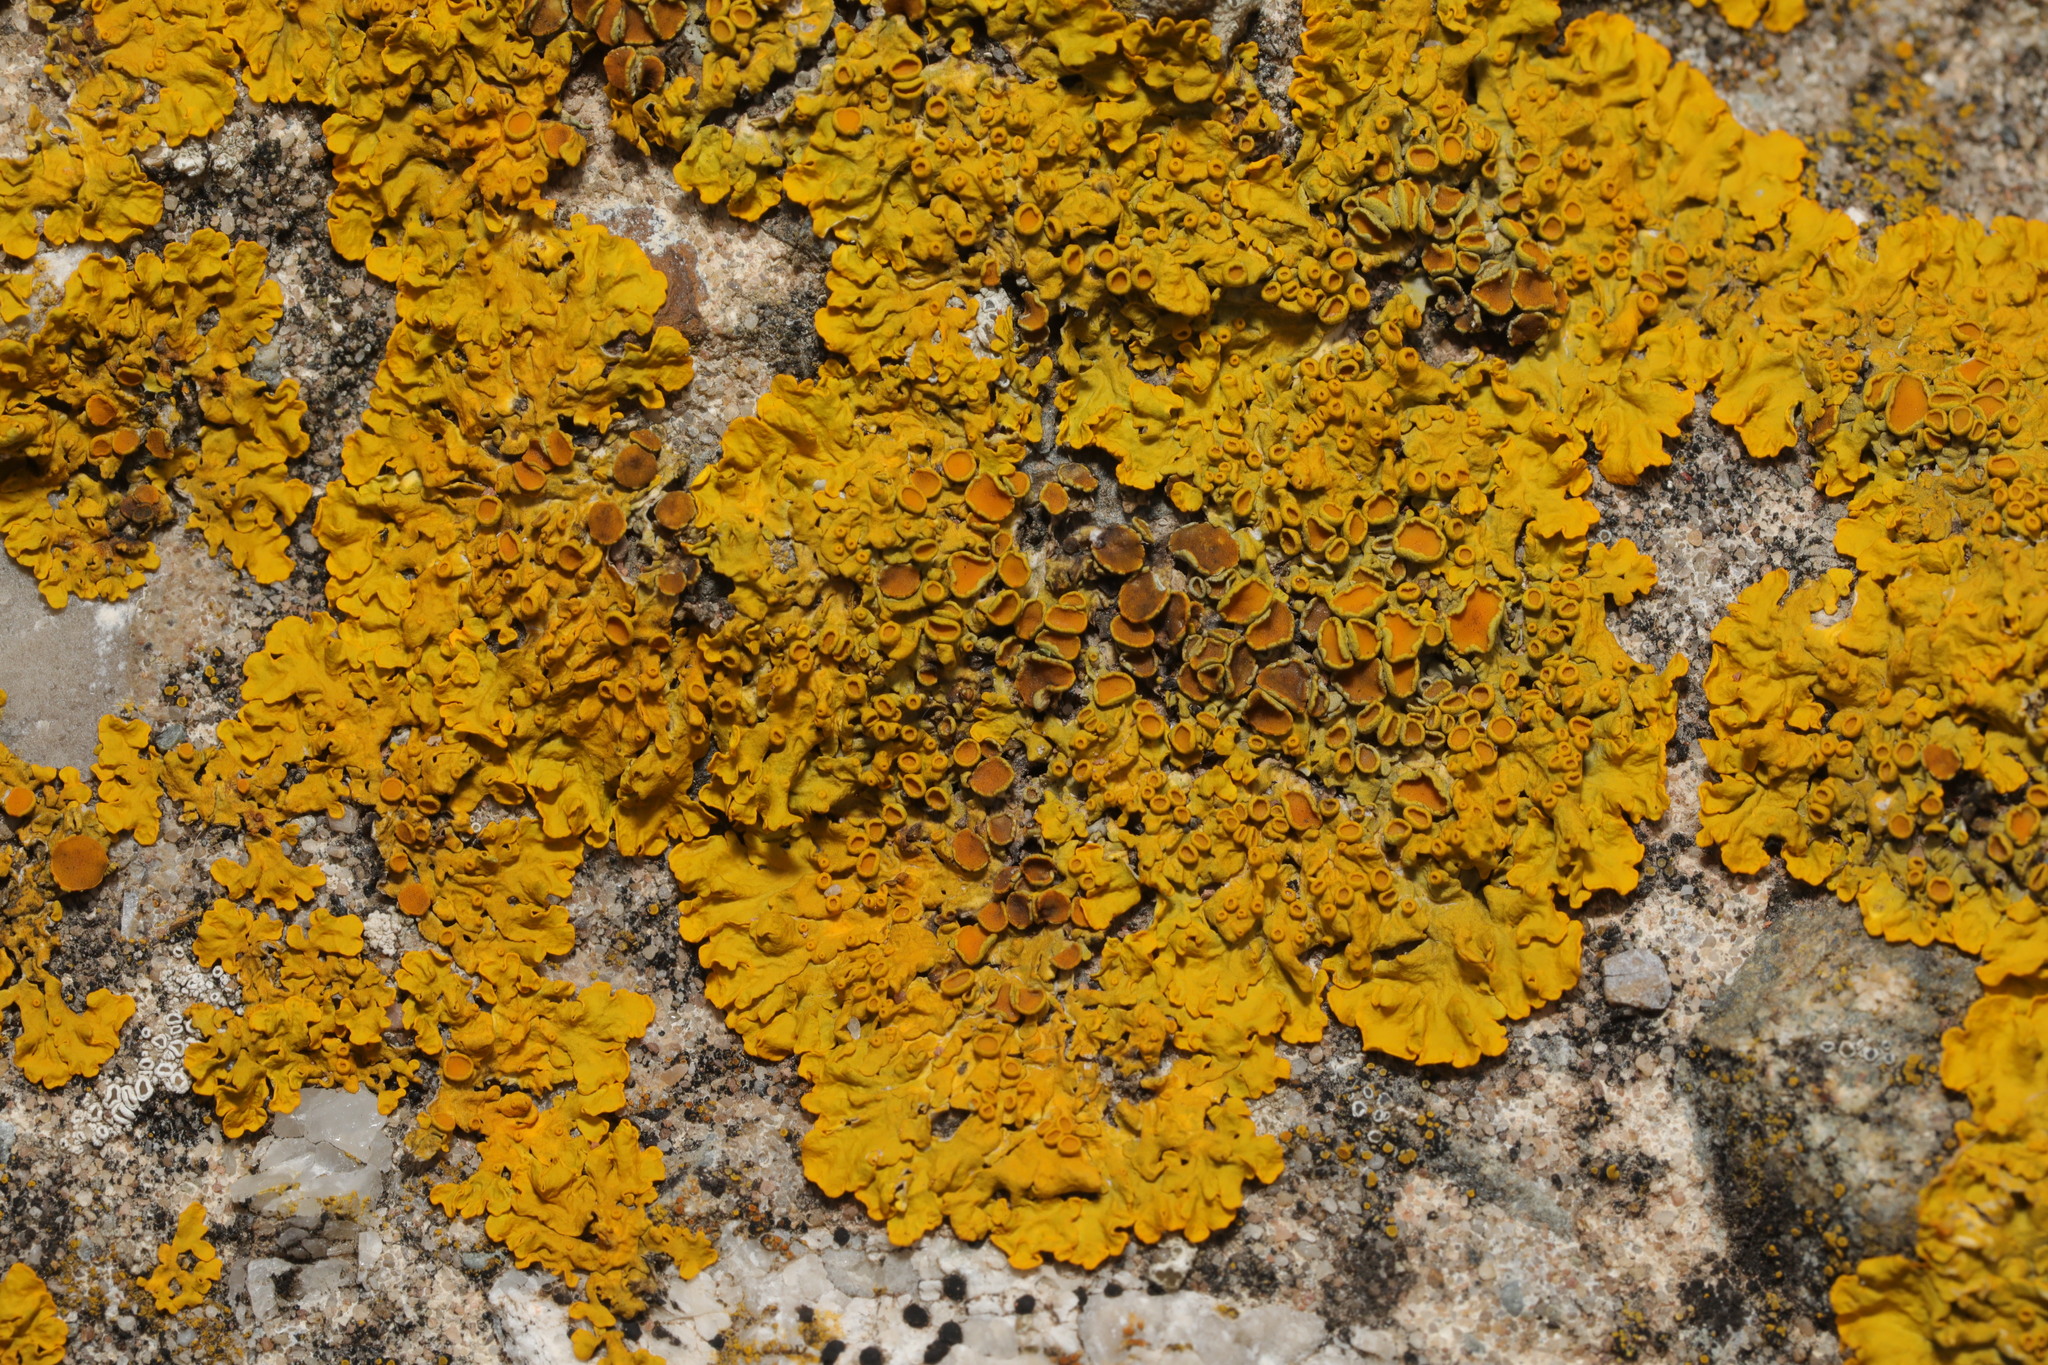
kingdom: Fungi
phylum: Ascomycota
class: Lecanoromycetes
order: Teloschistales
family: Teloschistaceae
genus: Xanthoria
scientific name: Xanthoria parietina
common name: Common orange lichen
